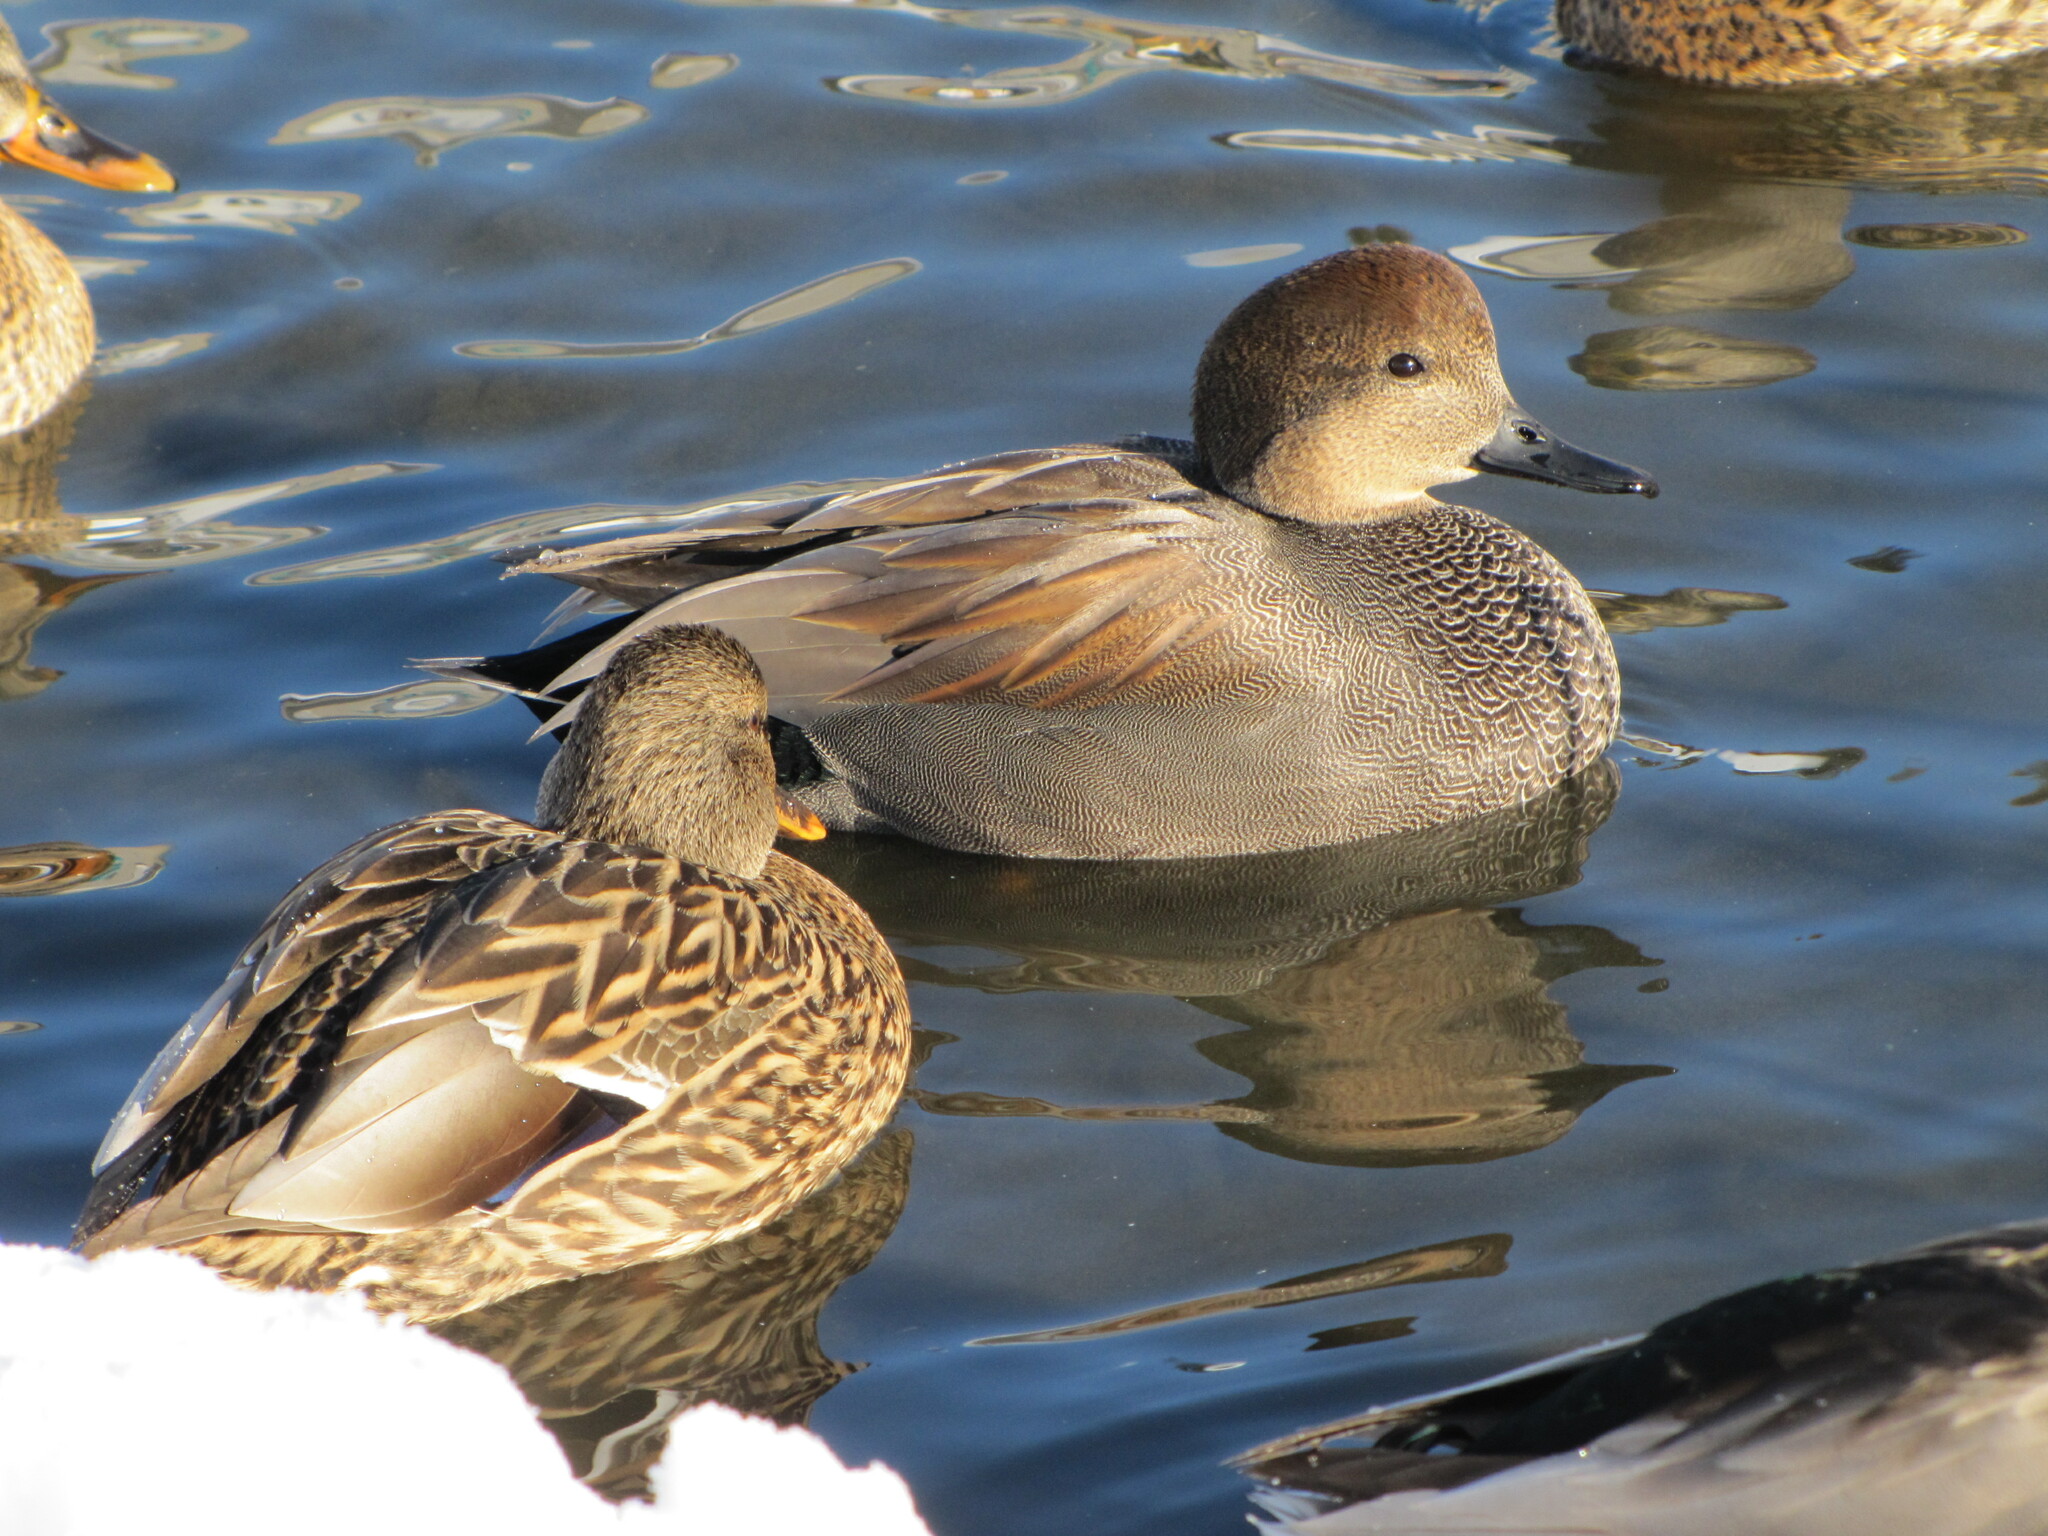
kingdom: Animalia
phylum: Chordata
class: Aves
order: Anseriformes
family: Anatidae
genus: Mareca
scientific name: Mareca strepera
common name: Gadwall
